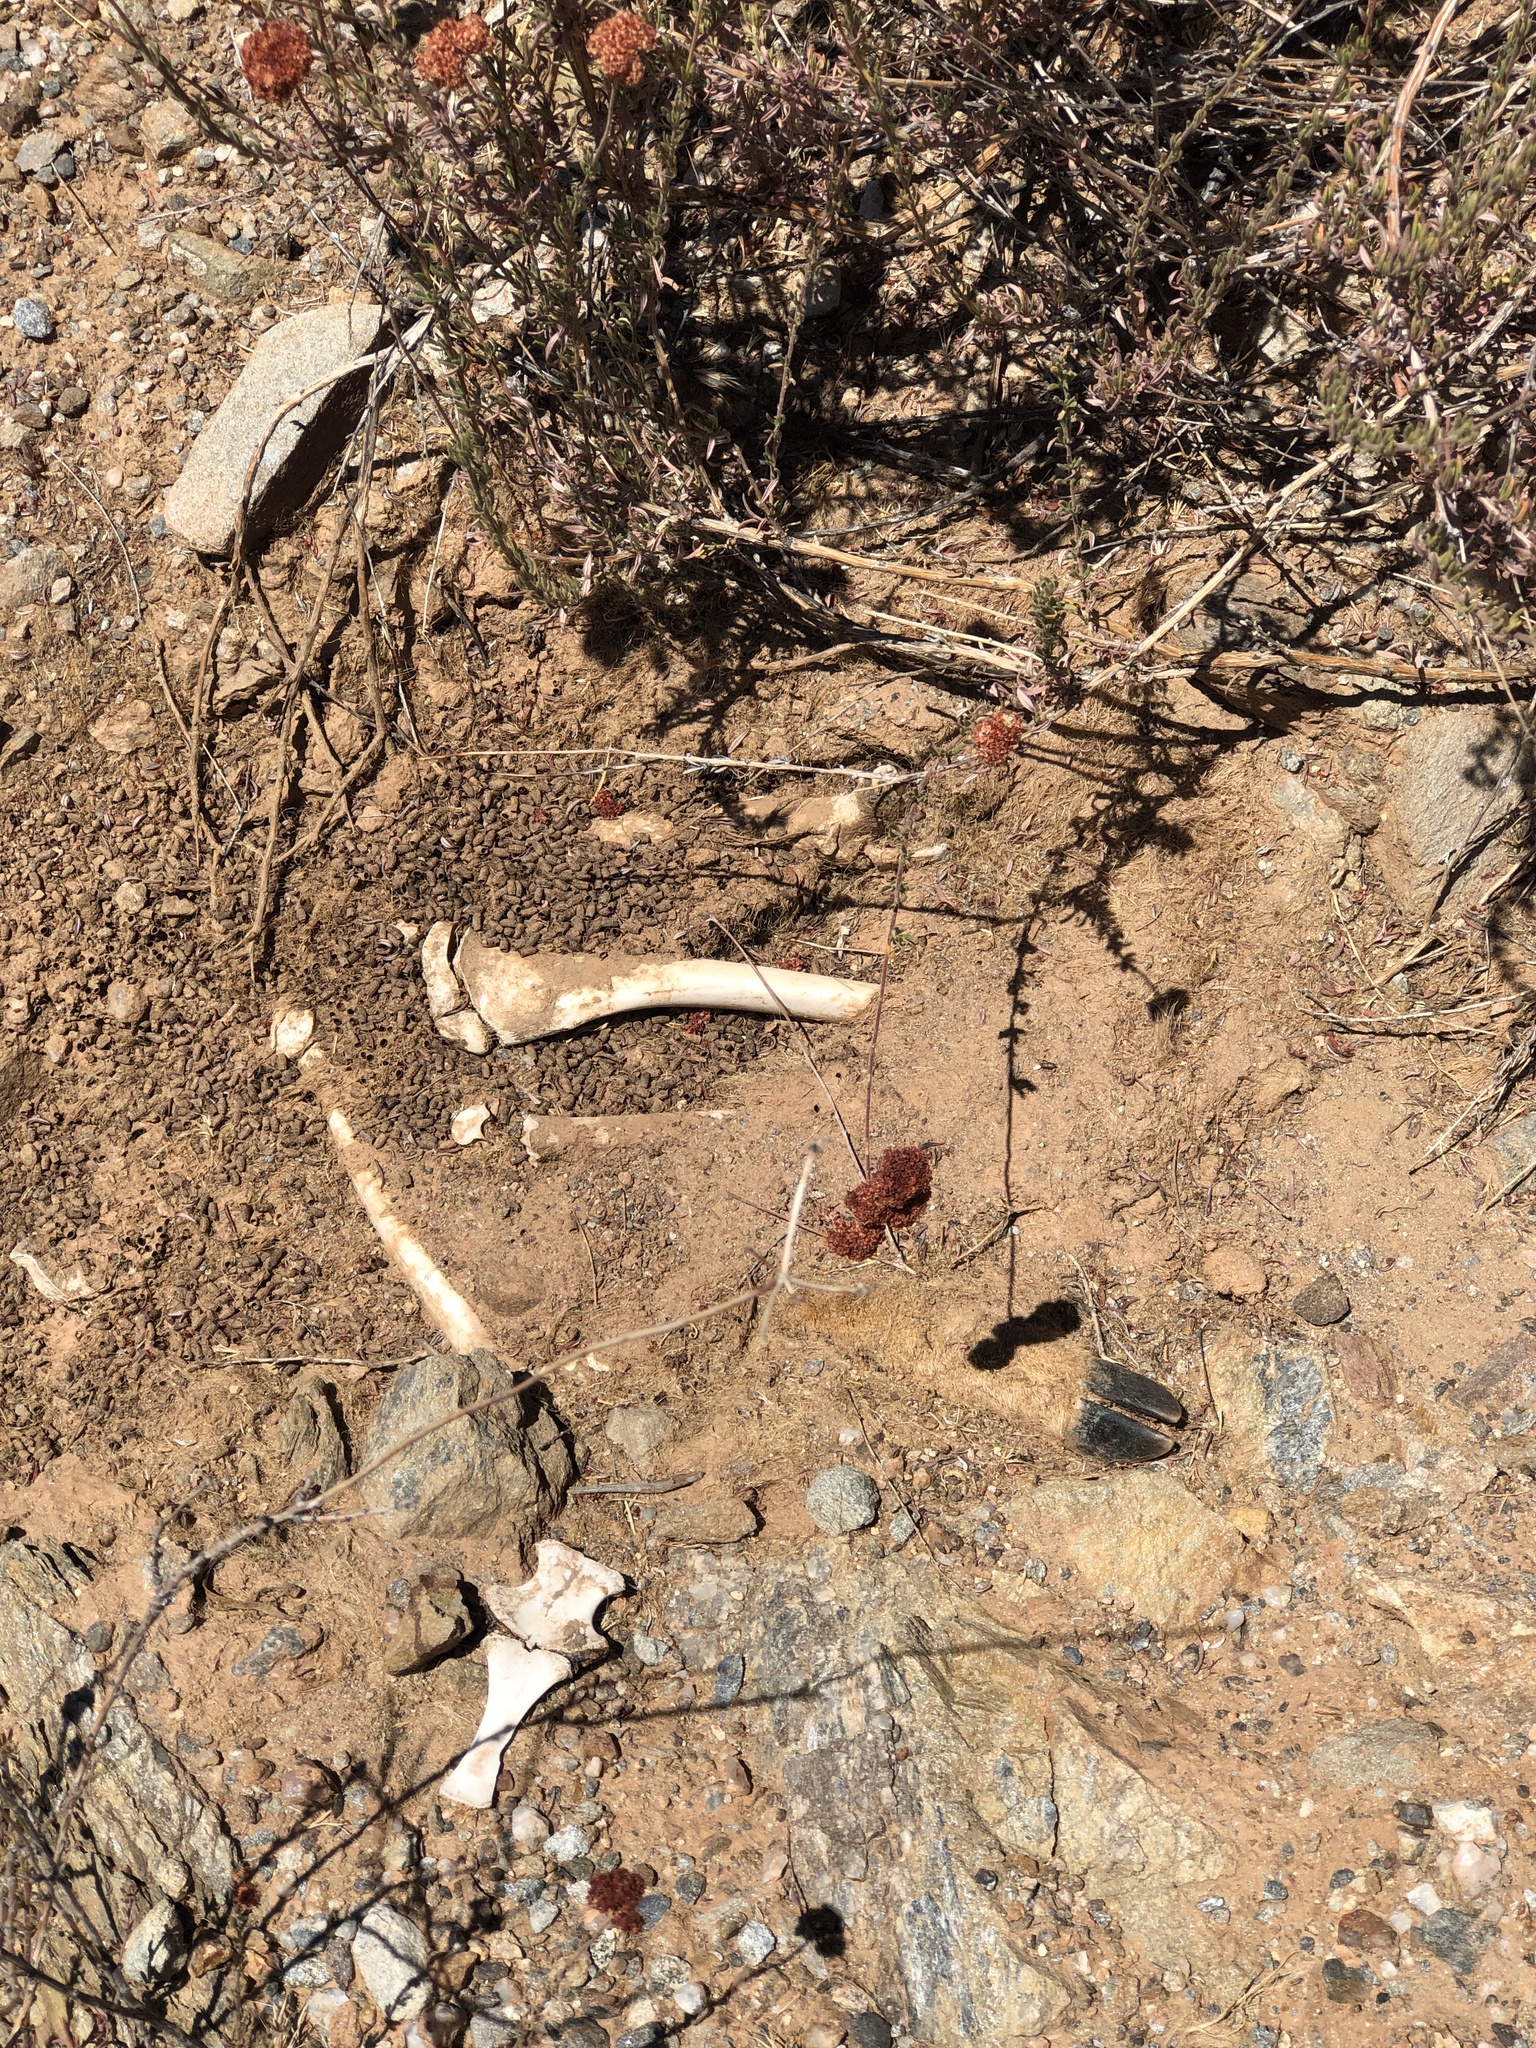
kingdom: Animalia
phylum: Chordata
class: Mammalia
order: Artiodactyla
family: Cervidae
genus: Odocoileus
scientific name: Odocoileus hemionus
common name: Mule deer
